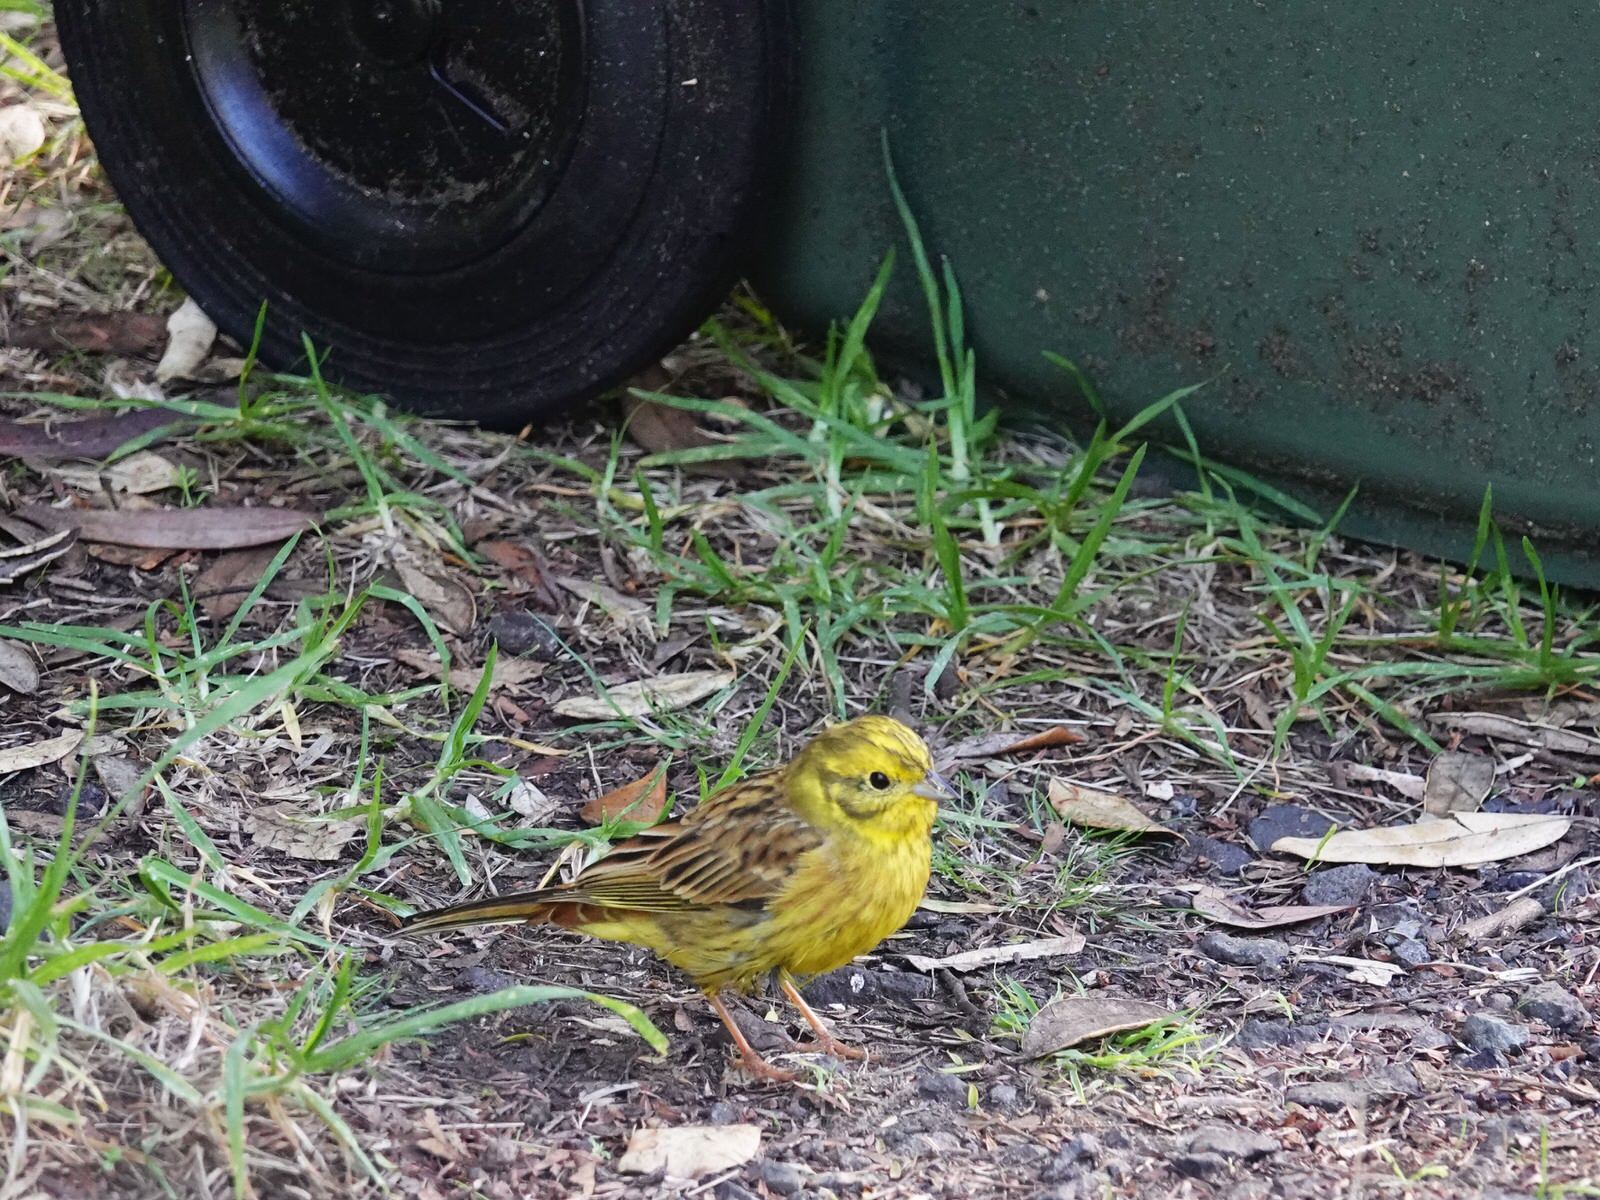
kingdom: Animalia
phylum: Chordata
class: Aves
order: Passeriformes
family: Emberizidae
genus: Emberiza
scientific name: Emberiza citrinella
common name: Yellowhammer
